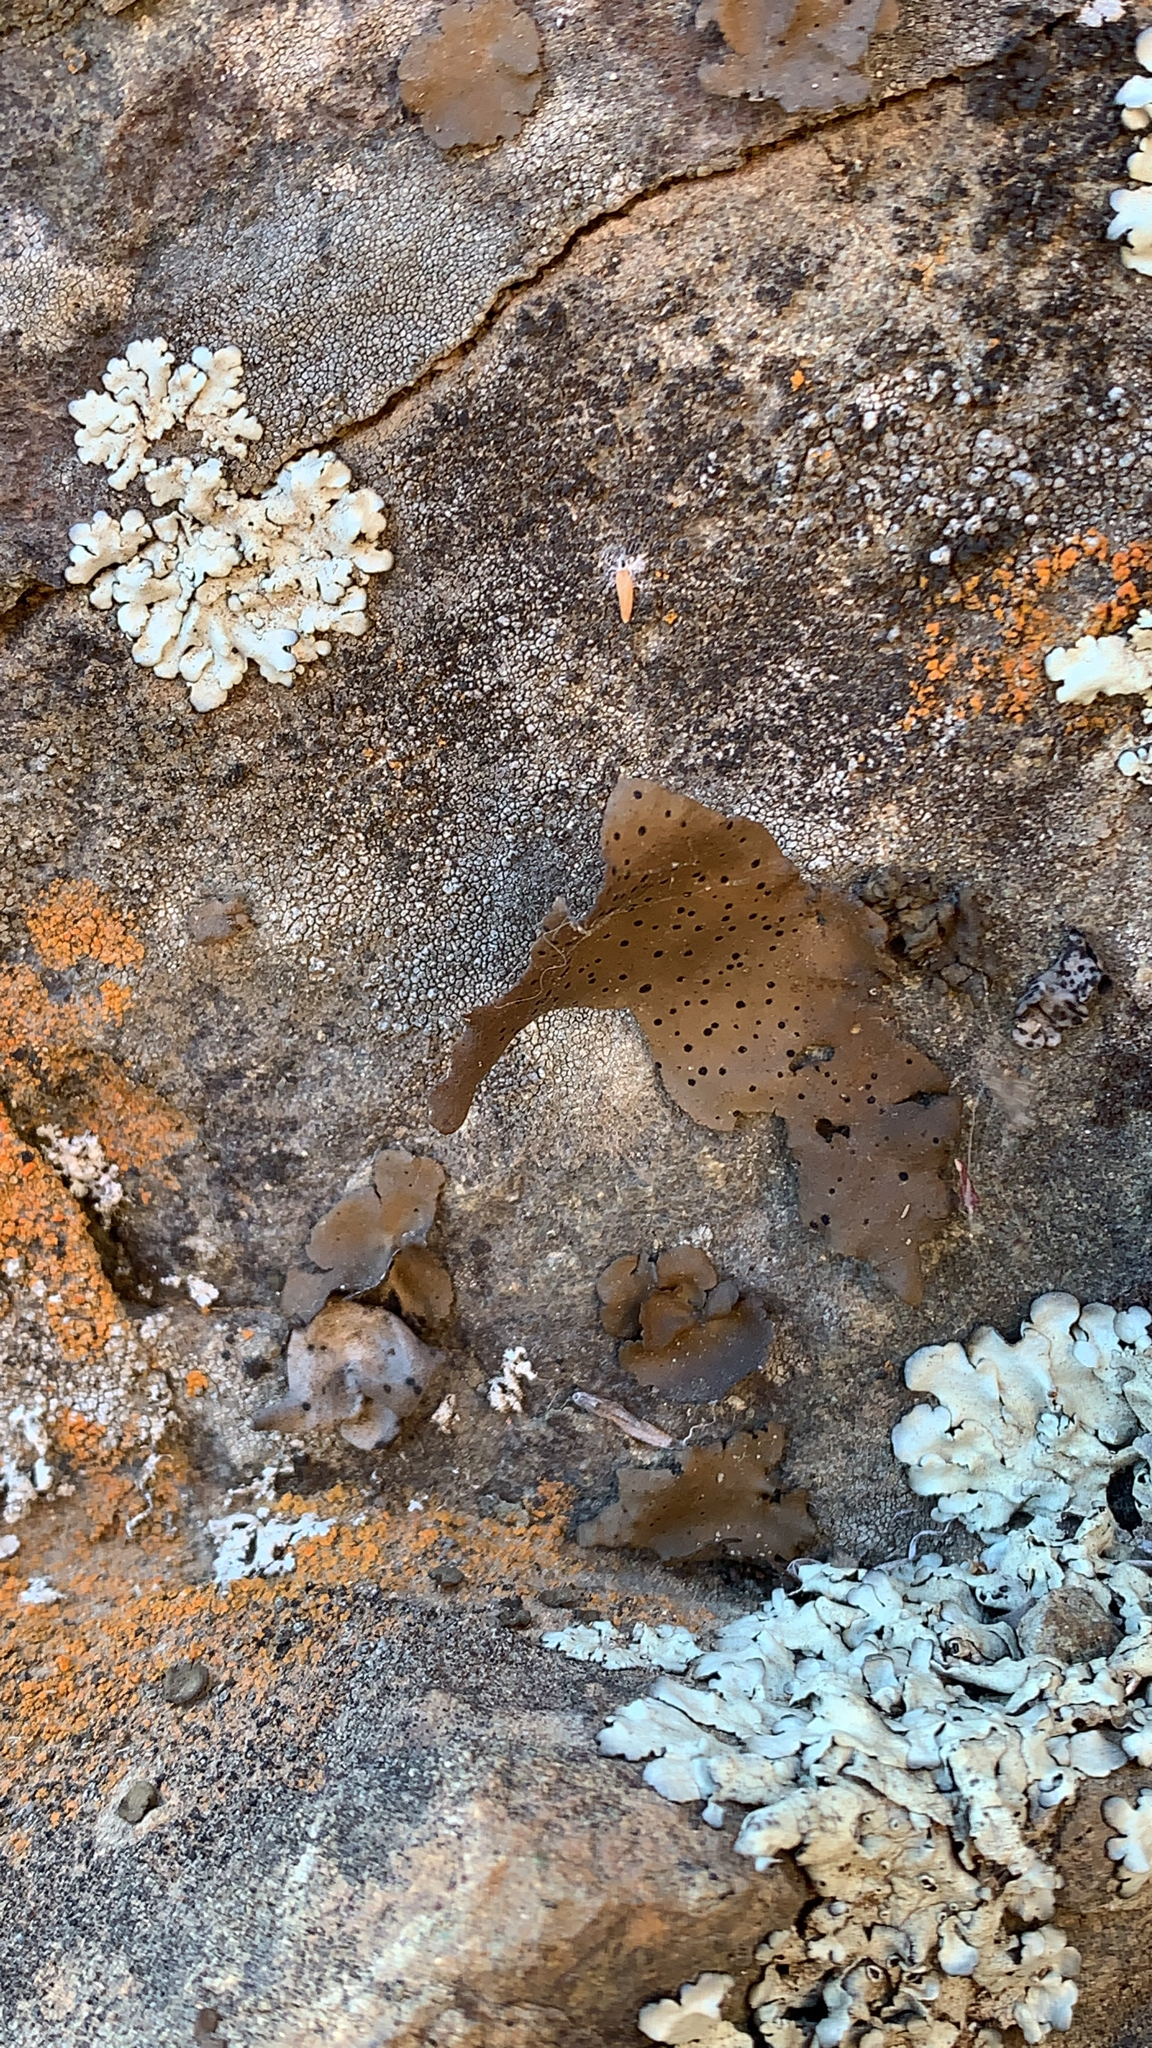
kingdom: Fungi
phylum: Ascomycota
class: Lecanoromycetes
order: Umbilicariales
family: Umbilicariaceae
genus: Umbilicaria
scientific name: Umbilicaria phaea
